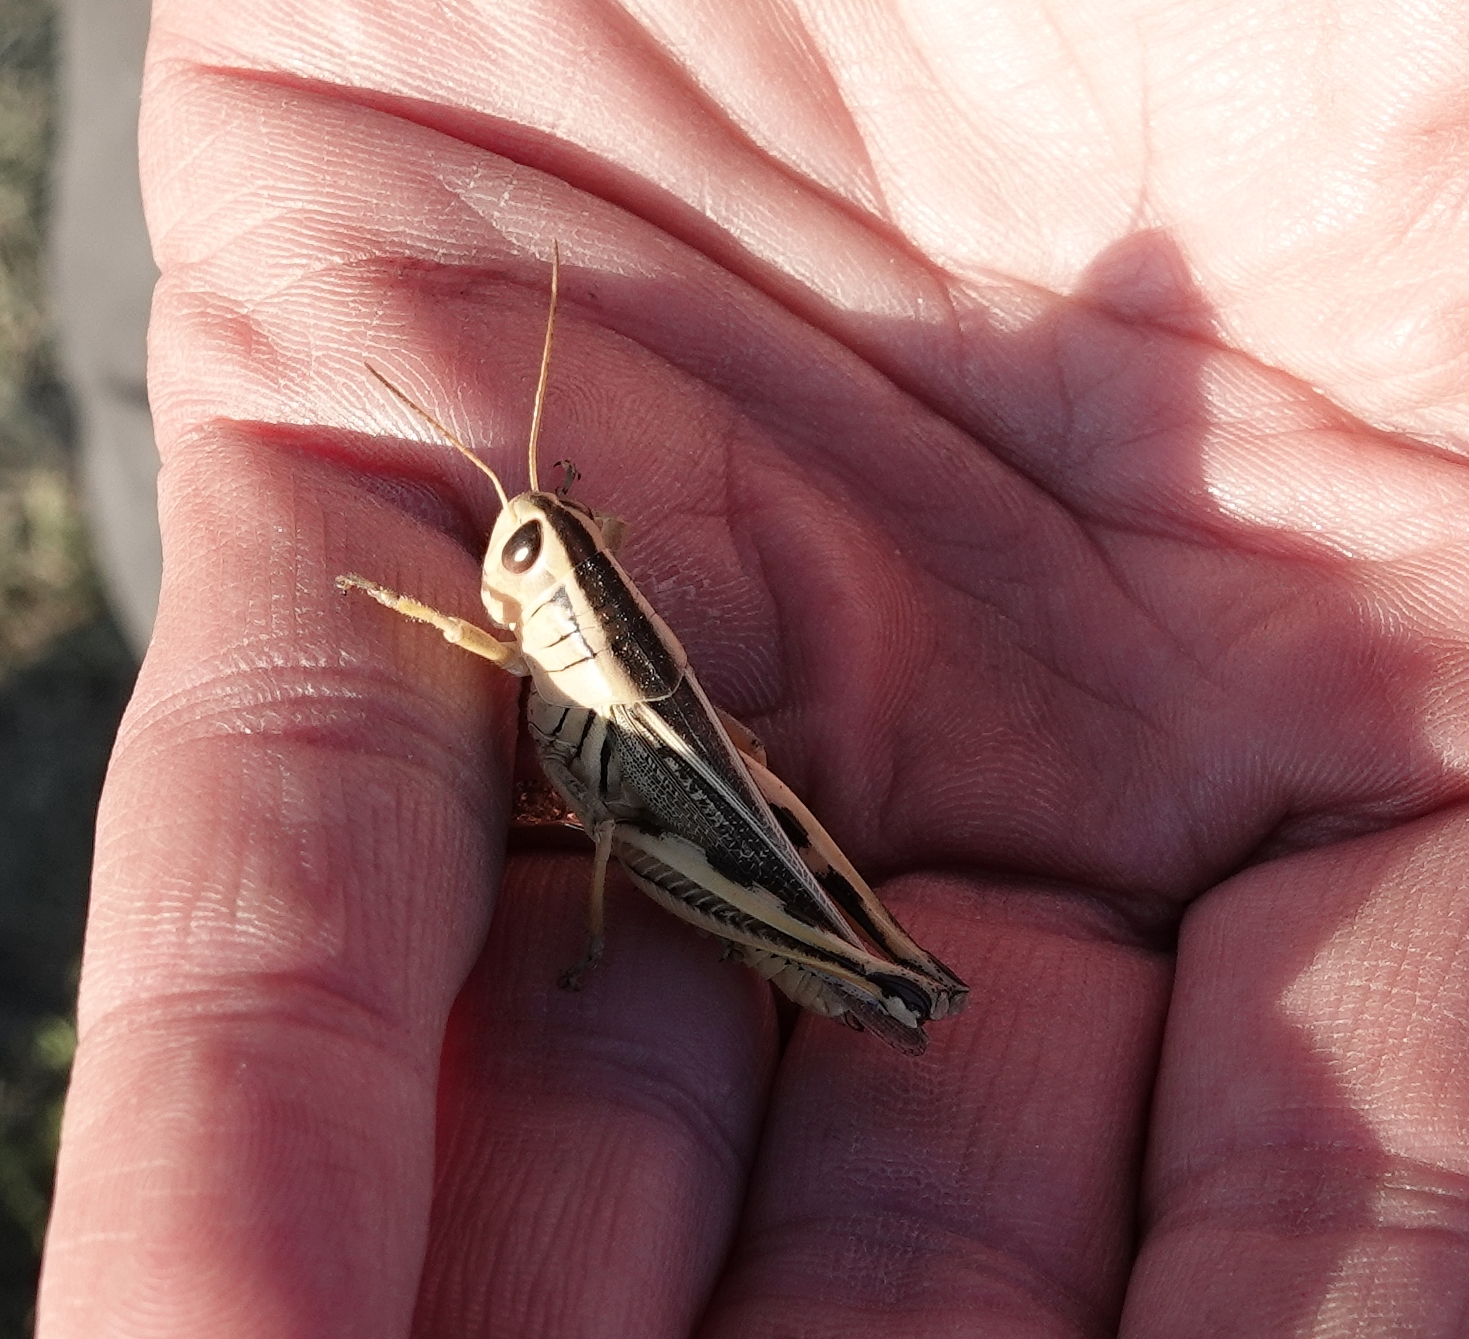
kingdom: Animalia
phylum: Arthropoda
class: Insecta
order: Orthoptera
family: Acrididae
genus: Melanoplus
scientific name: Melanoplus bivittatus
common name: Two-striped grasshopper
